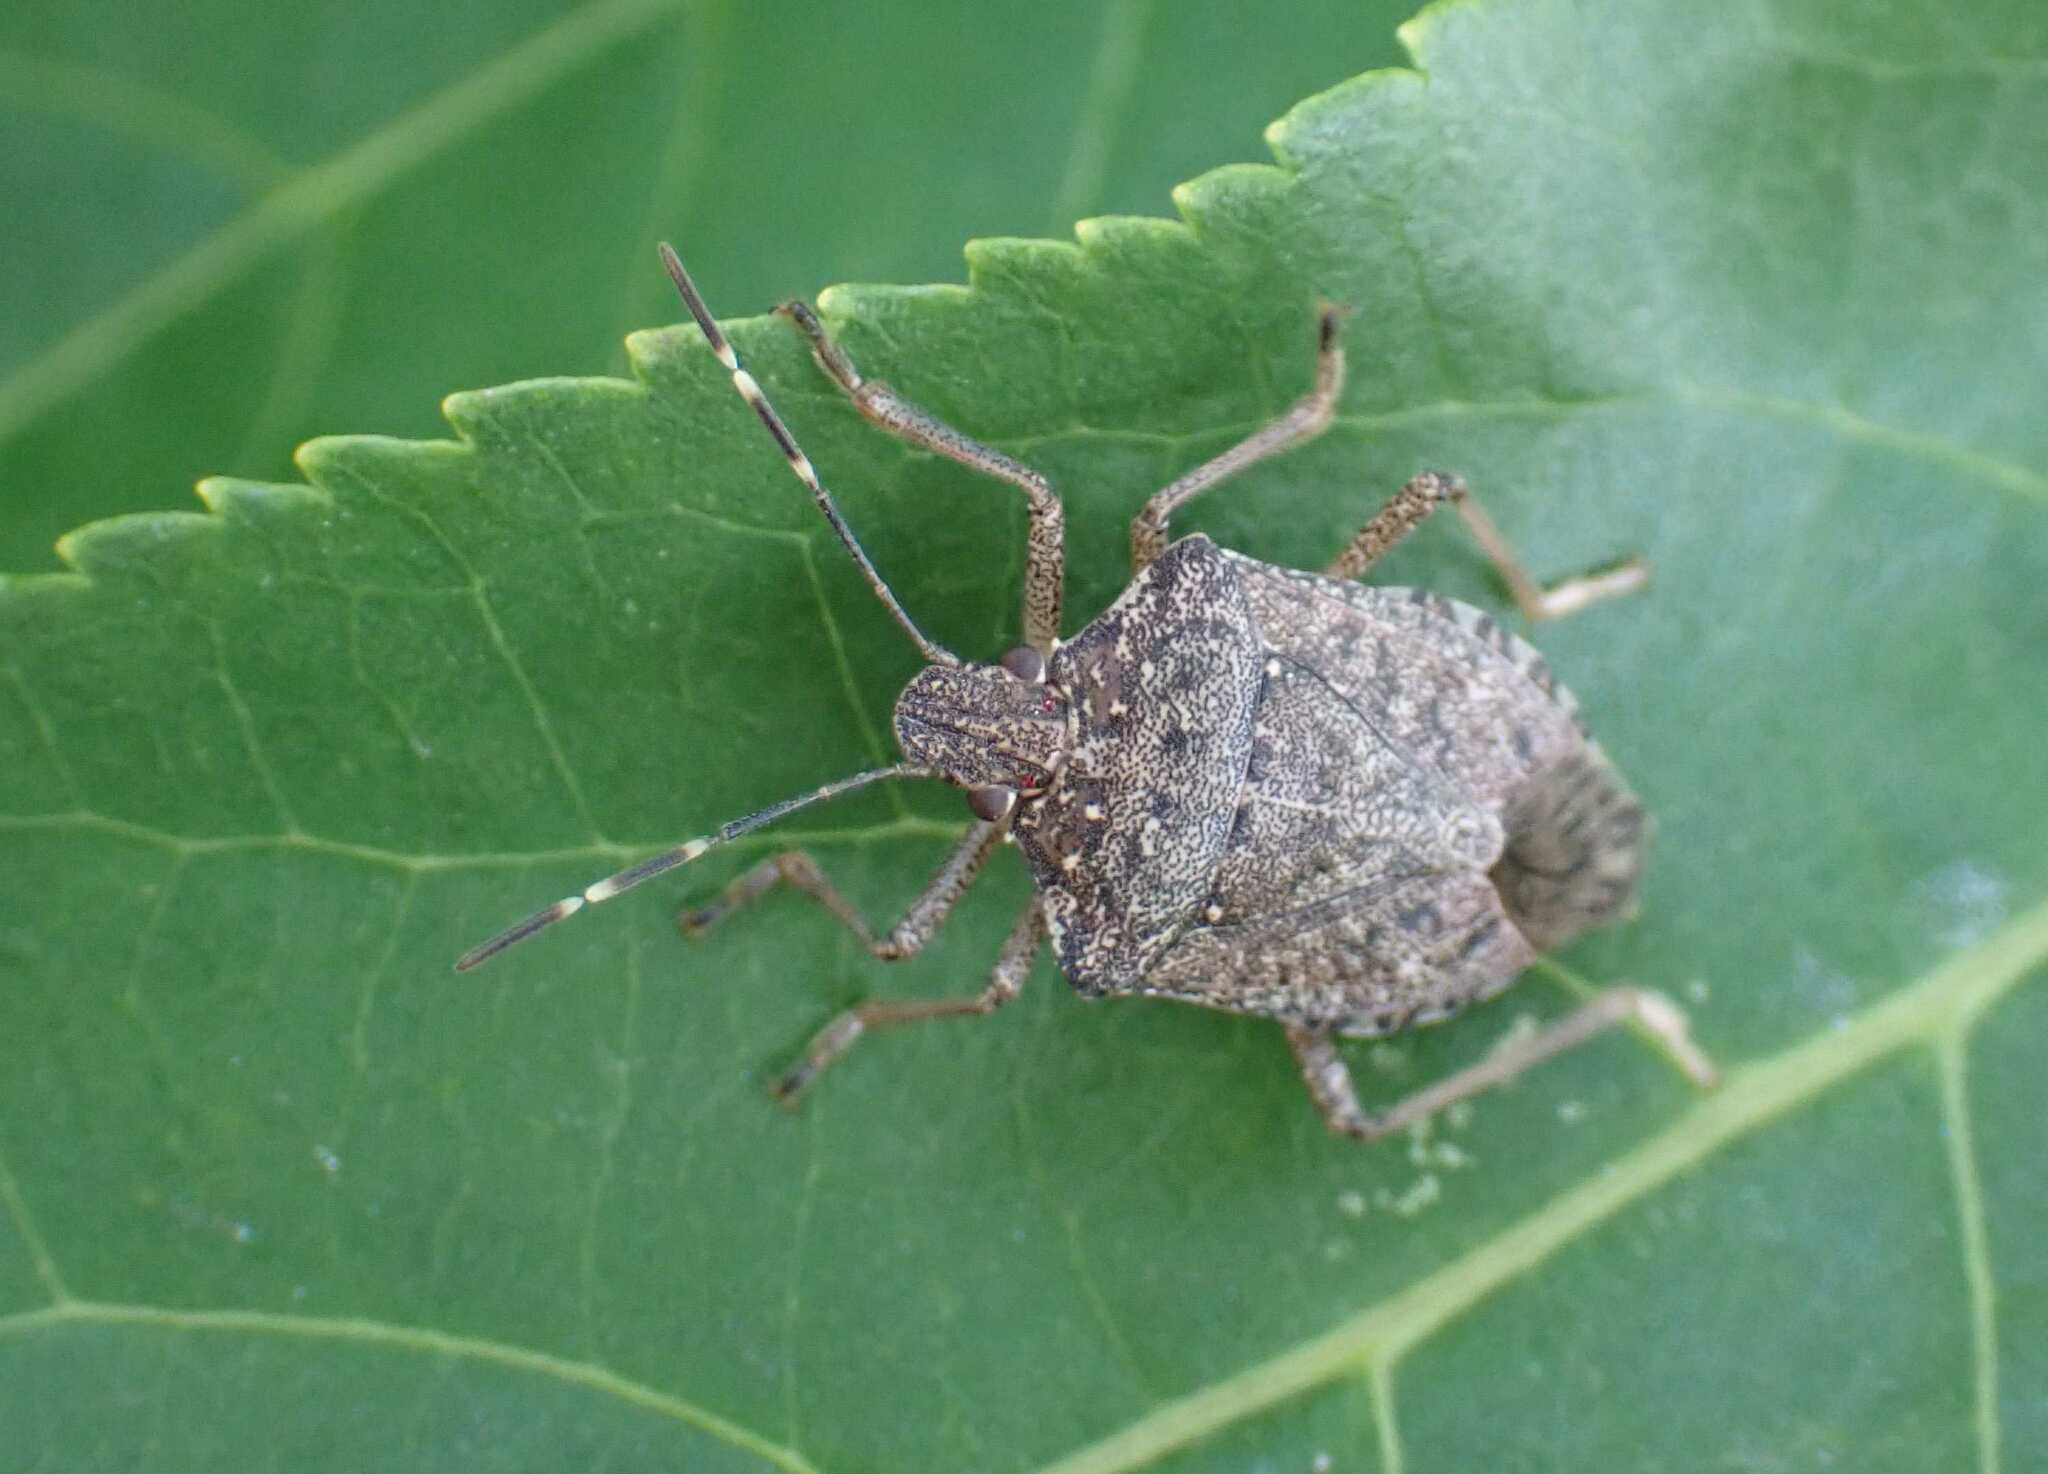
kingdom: Animalia
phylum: Arthropoda
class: Insecta
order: Hemiptera
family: Pentatomidae
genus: Halyomorpha
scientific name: Halyomorpha halys
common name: Brown marmorated stink bug
